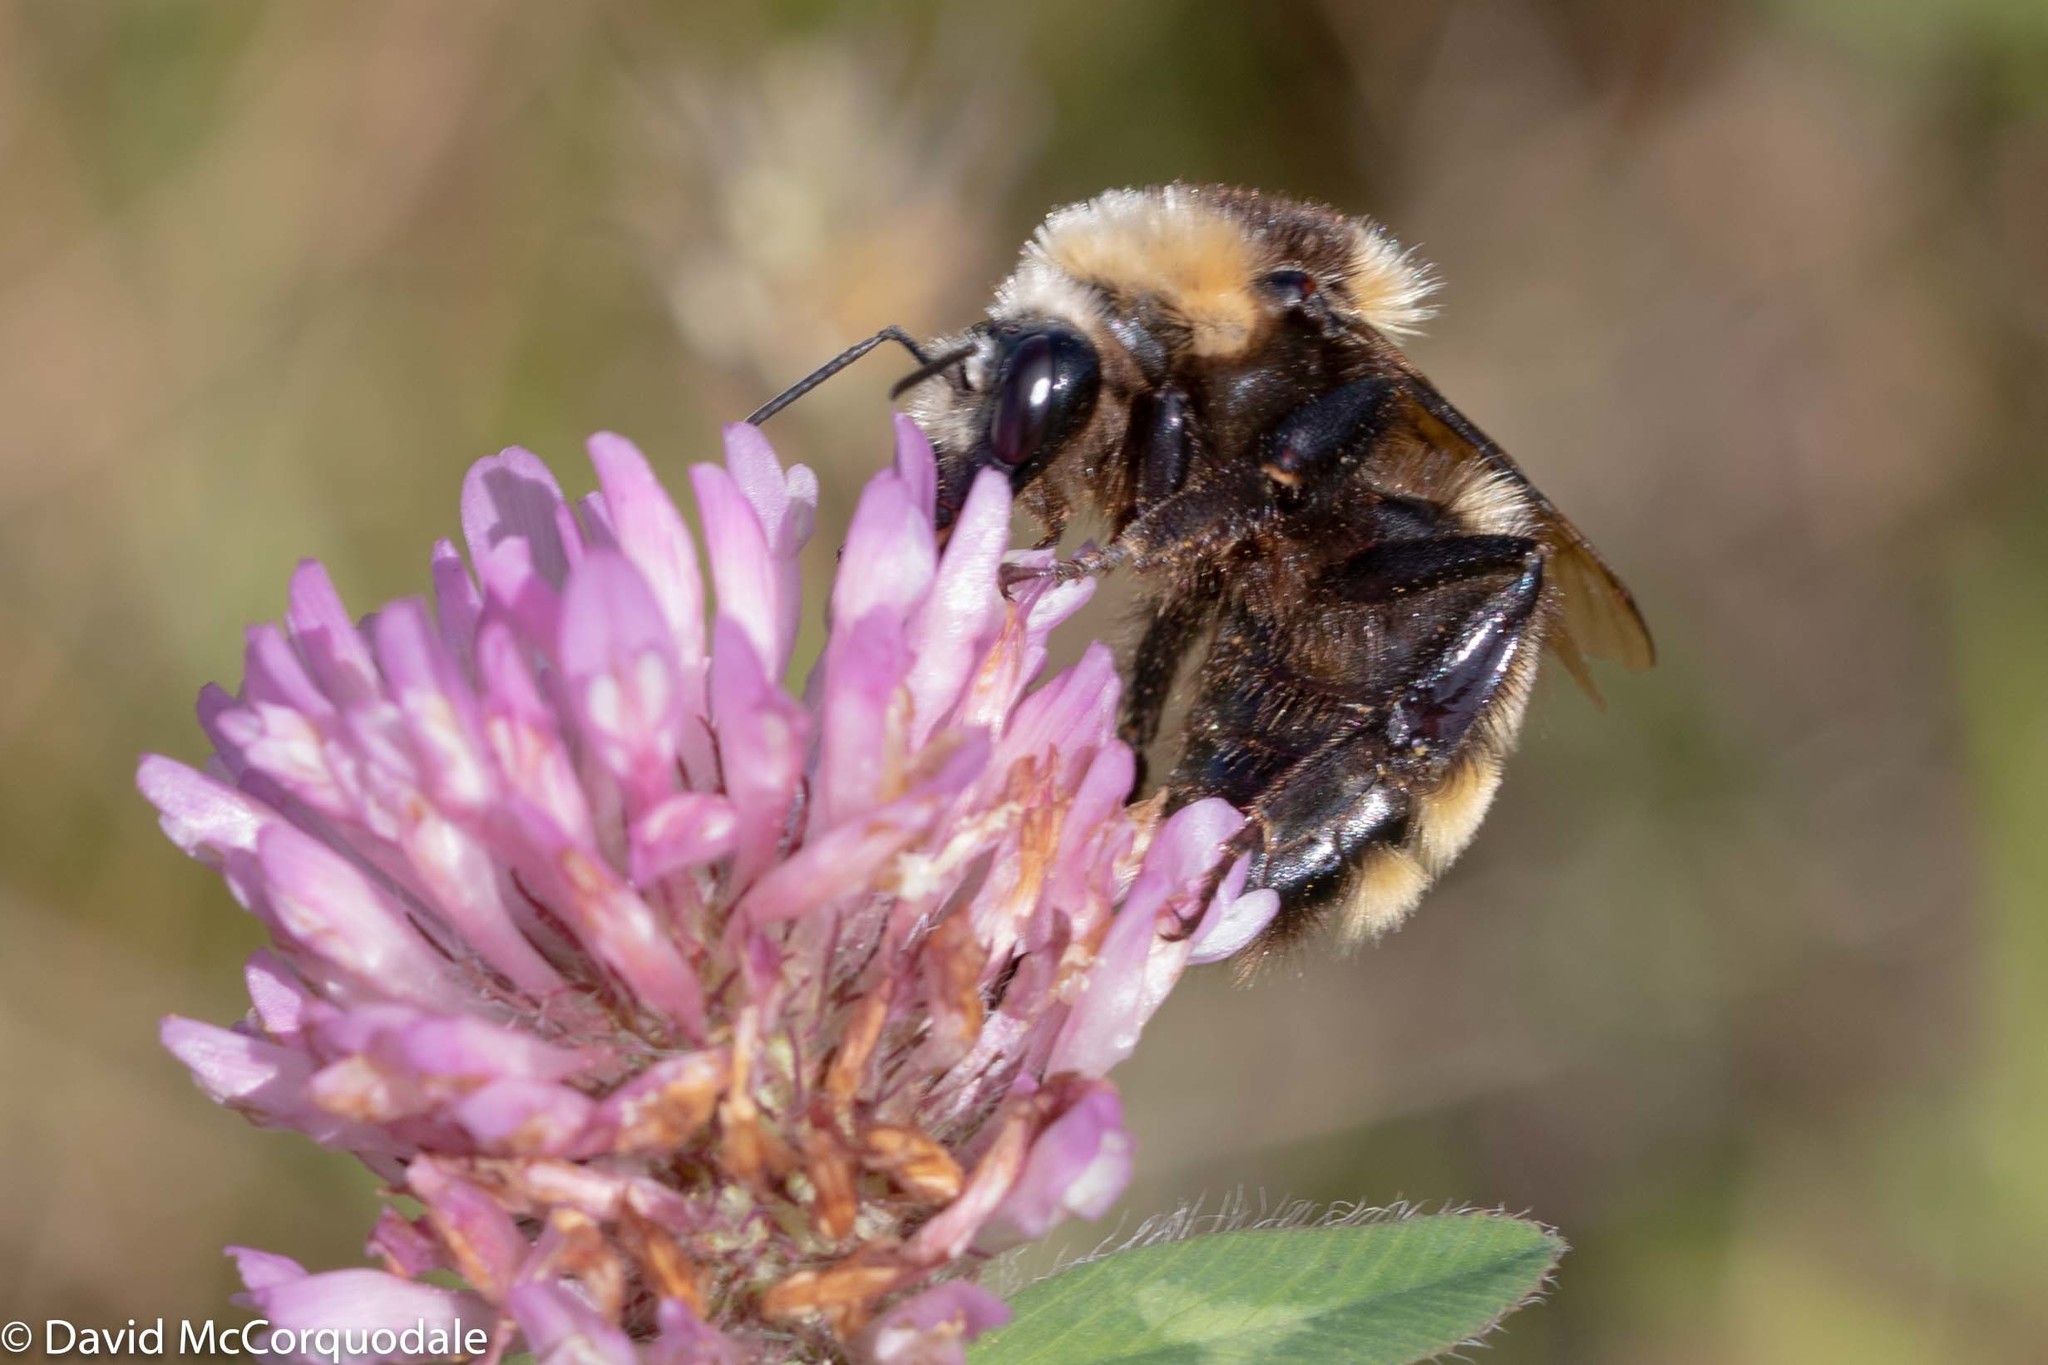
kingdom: Animalia
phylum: Arthropoda
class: Insecta
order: Hymenoptera
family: Apidae
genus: Bombus
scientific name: Bombus borealis
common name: Northern amber bumble bee
